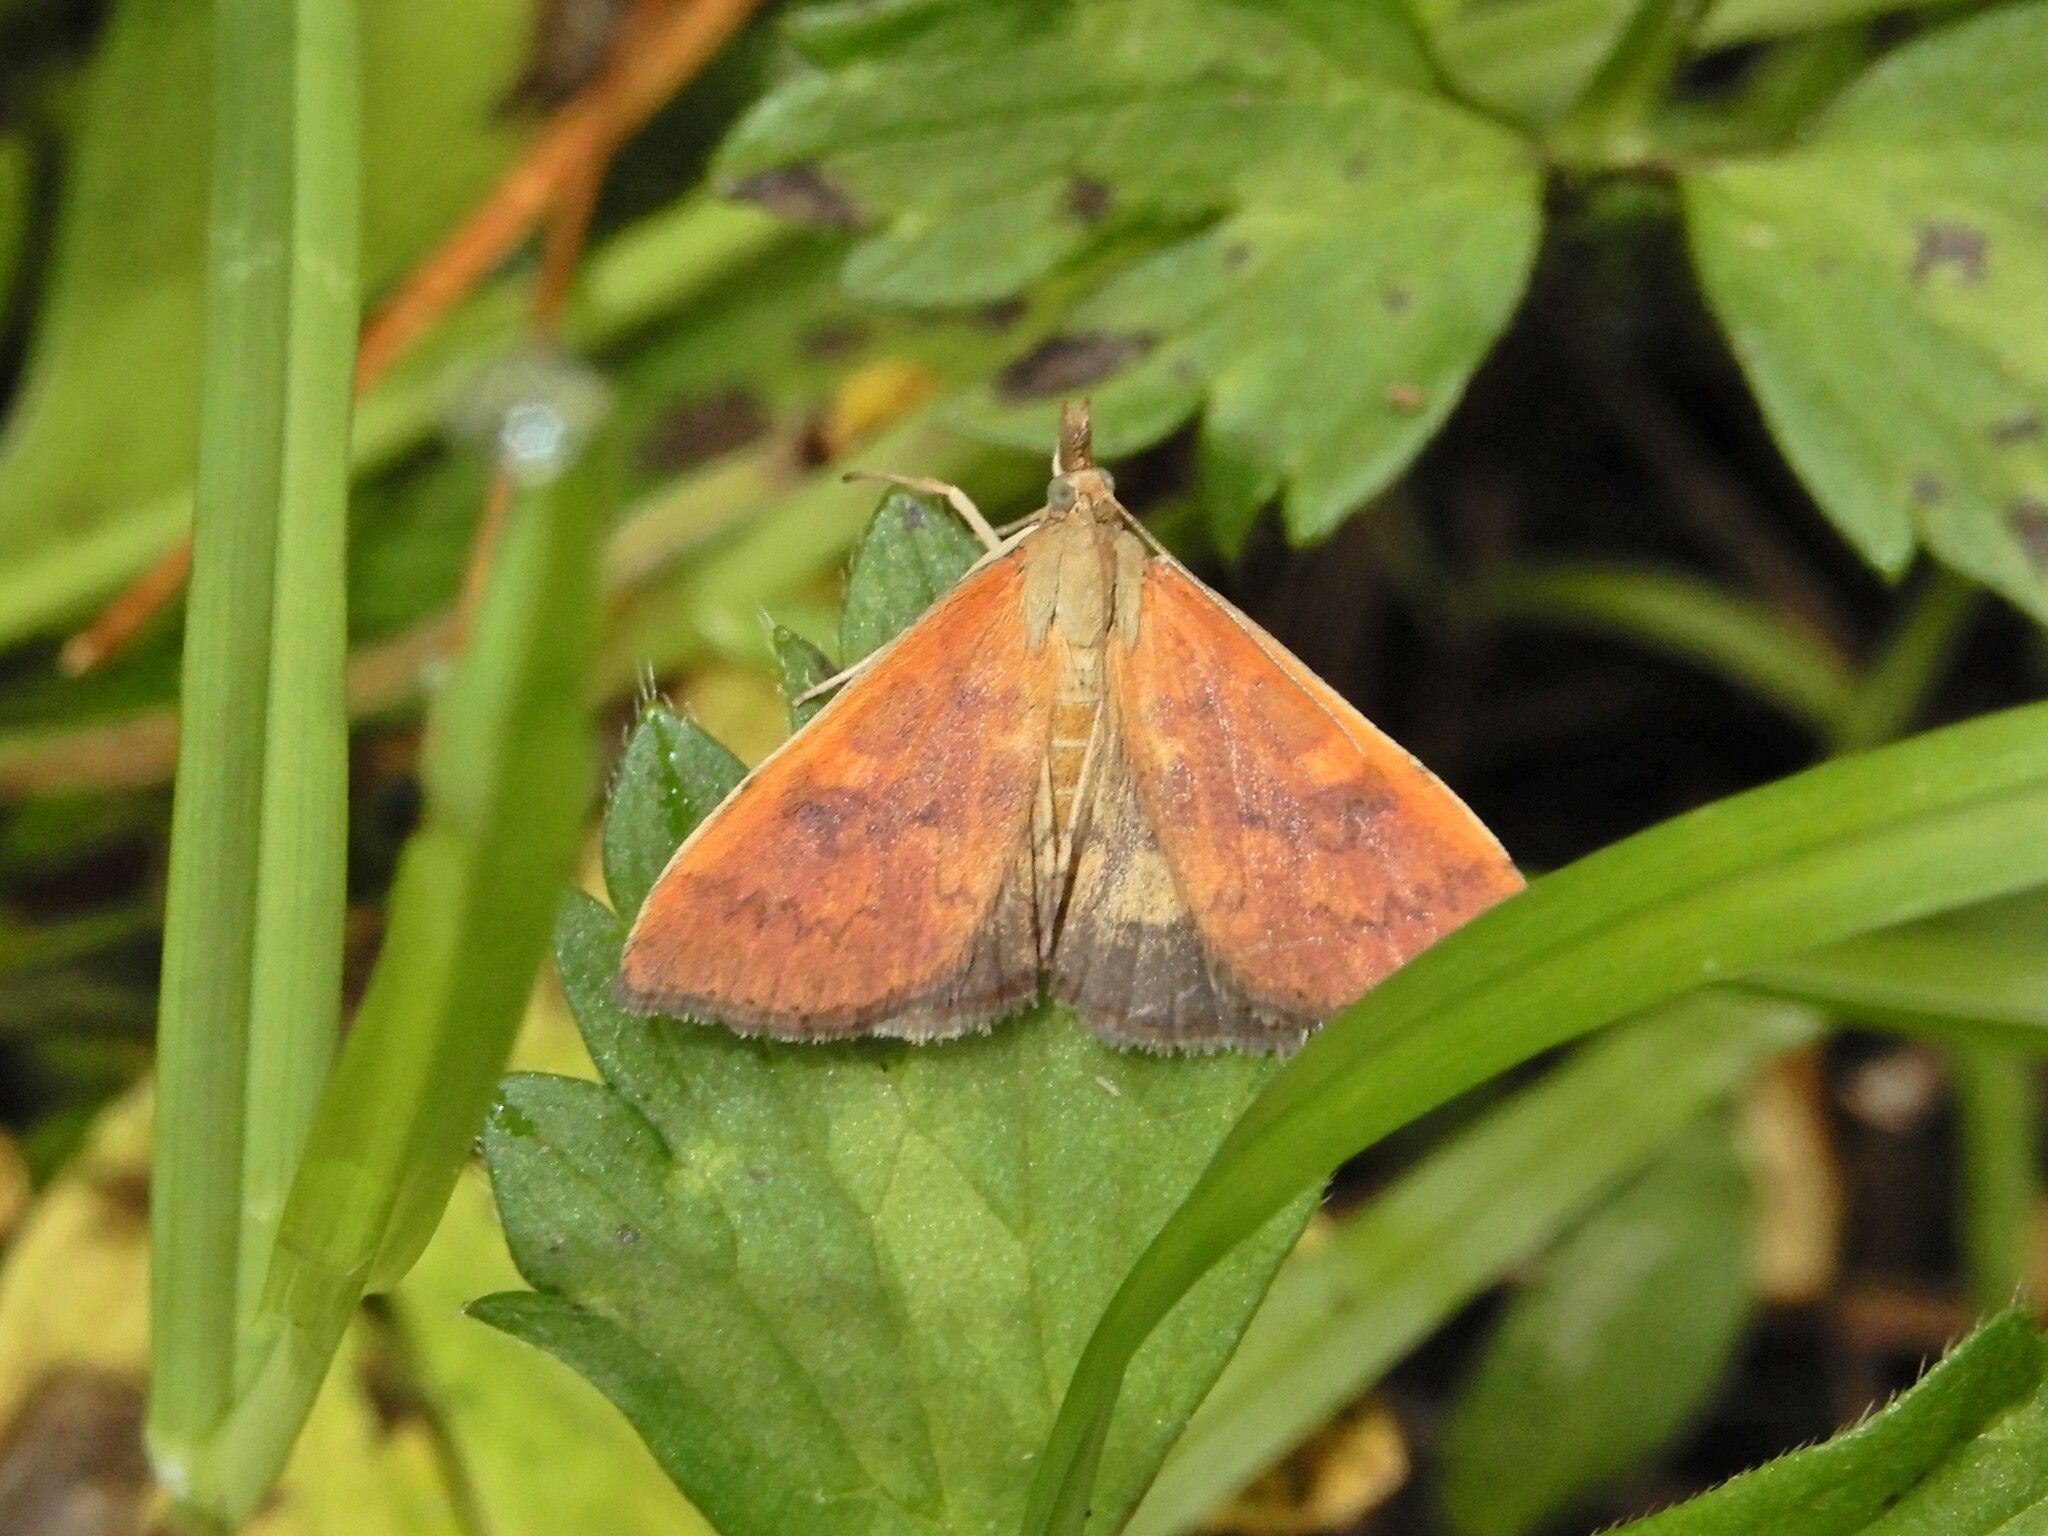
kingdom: Animalia
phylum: Arthropoda
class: Insecta
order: Lepidoptera
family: Crambidae
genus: Udea
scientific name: Udea Mnesictena flavidalis
